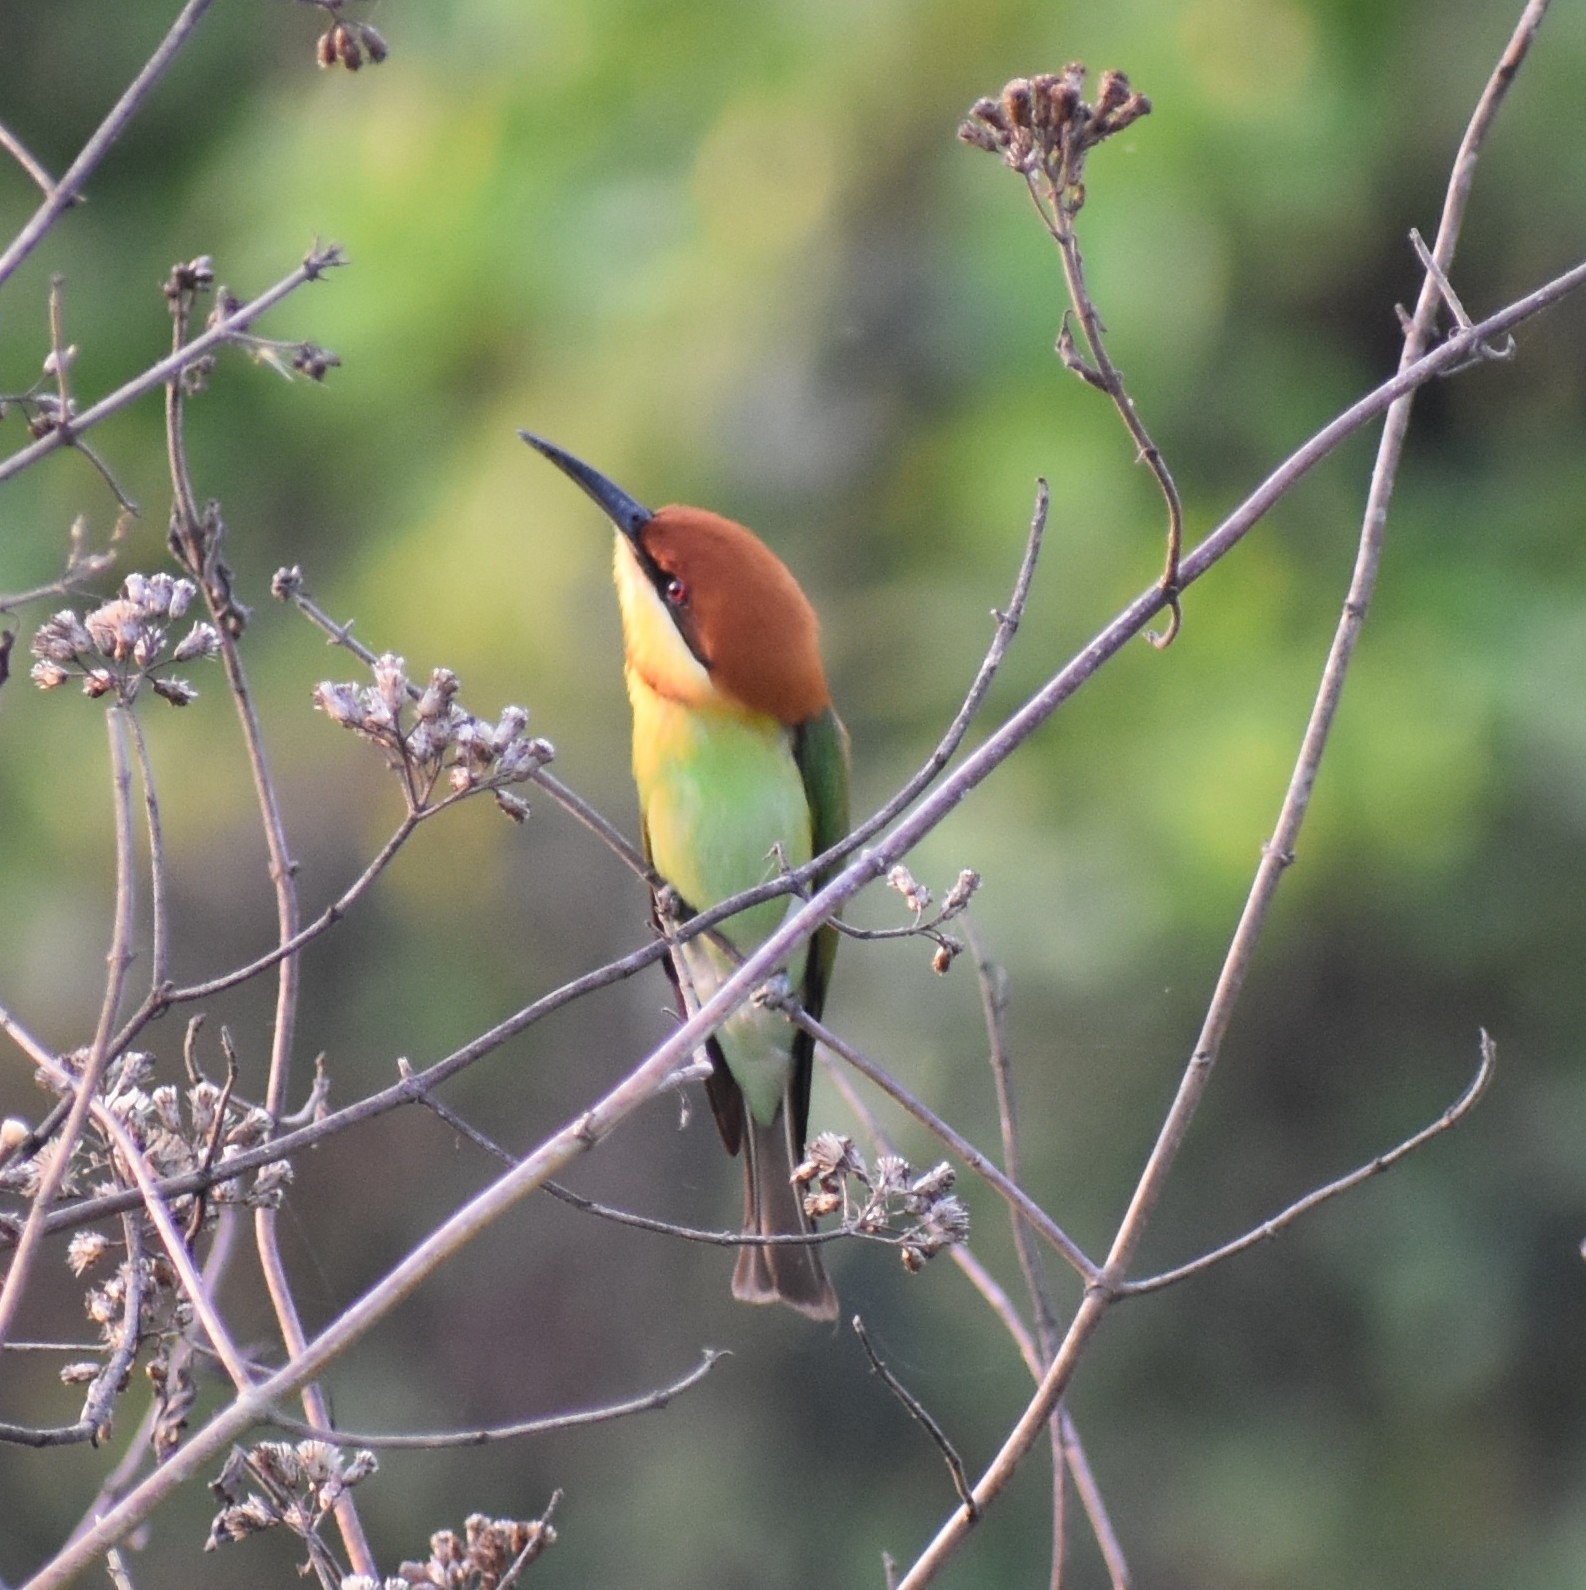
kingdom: Animalia
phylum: Chordata
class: Aves
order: Coraciiformes
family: Meropidae
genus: Merops
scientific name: Merops leschenaulti
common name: Chestnut-headed bee-eater
